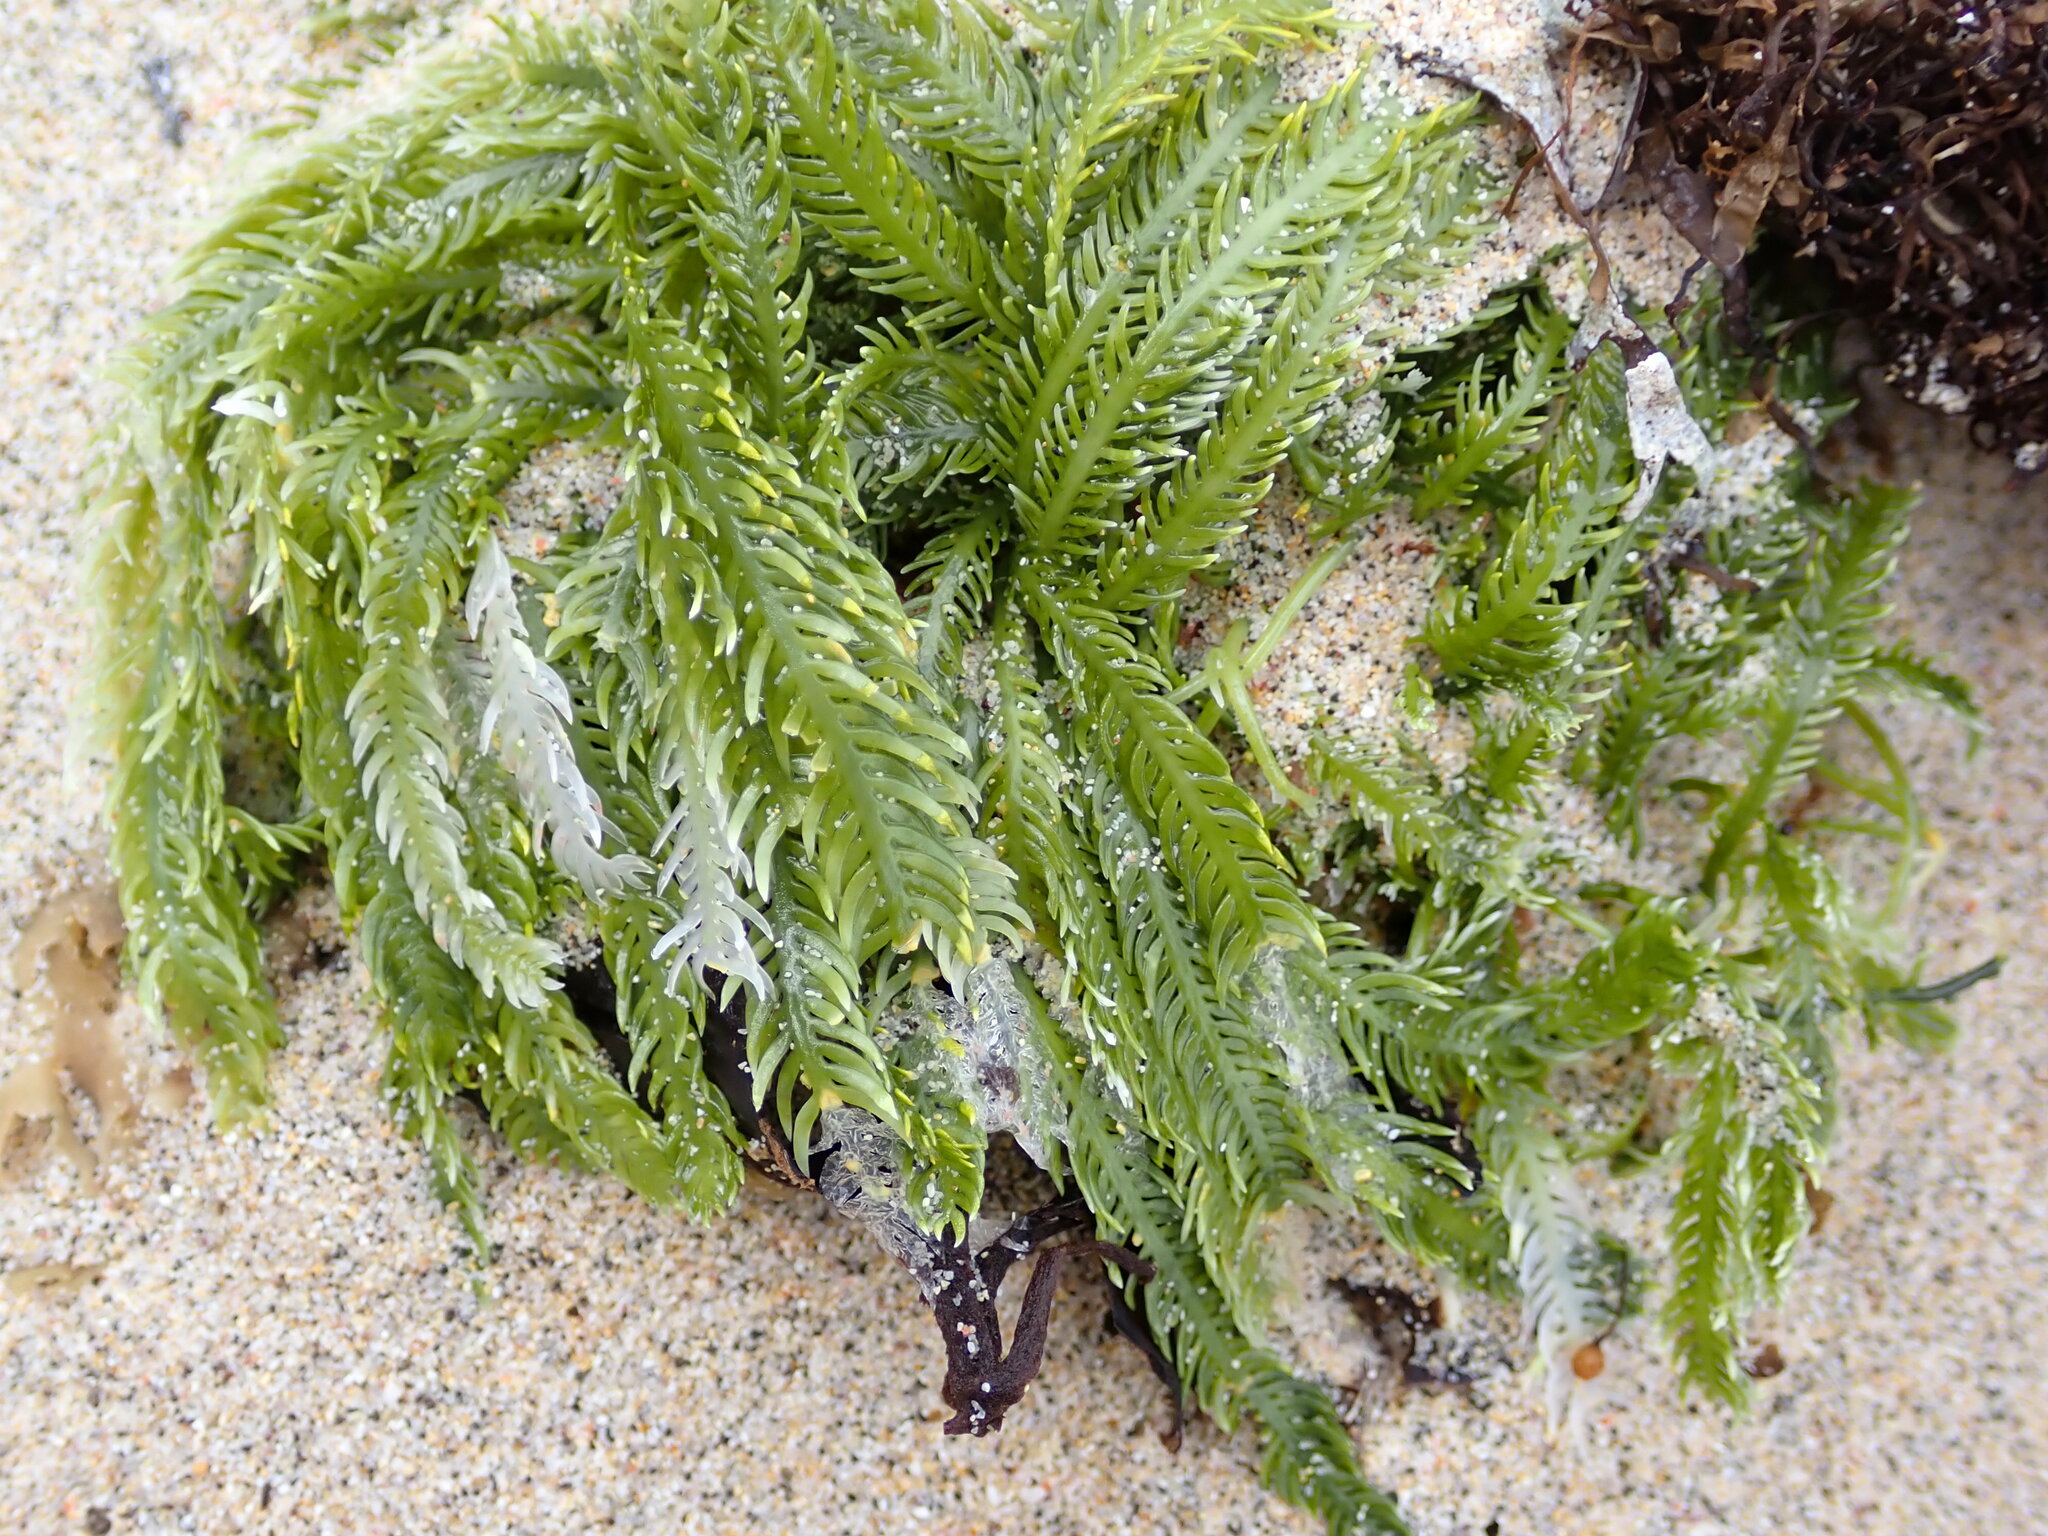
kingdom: Plantae
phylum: Chlorophyta
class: Ulvophyceae
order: Bryopsidales
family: Caulerpaceae
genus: Caulerpa
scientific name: Caulerpa taxifolia
